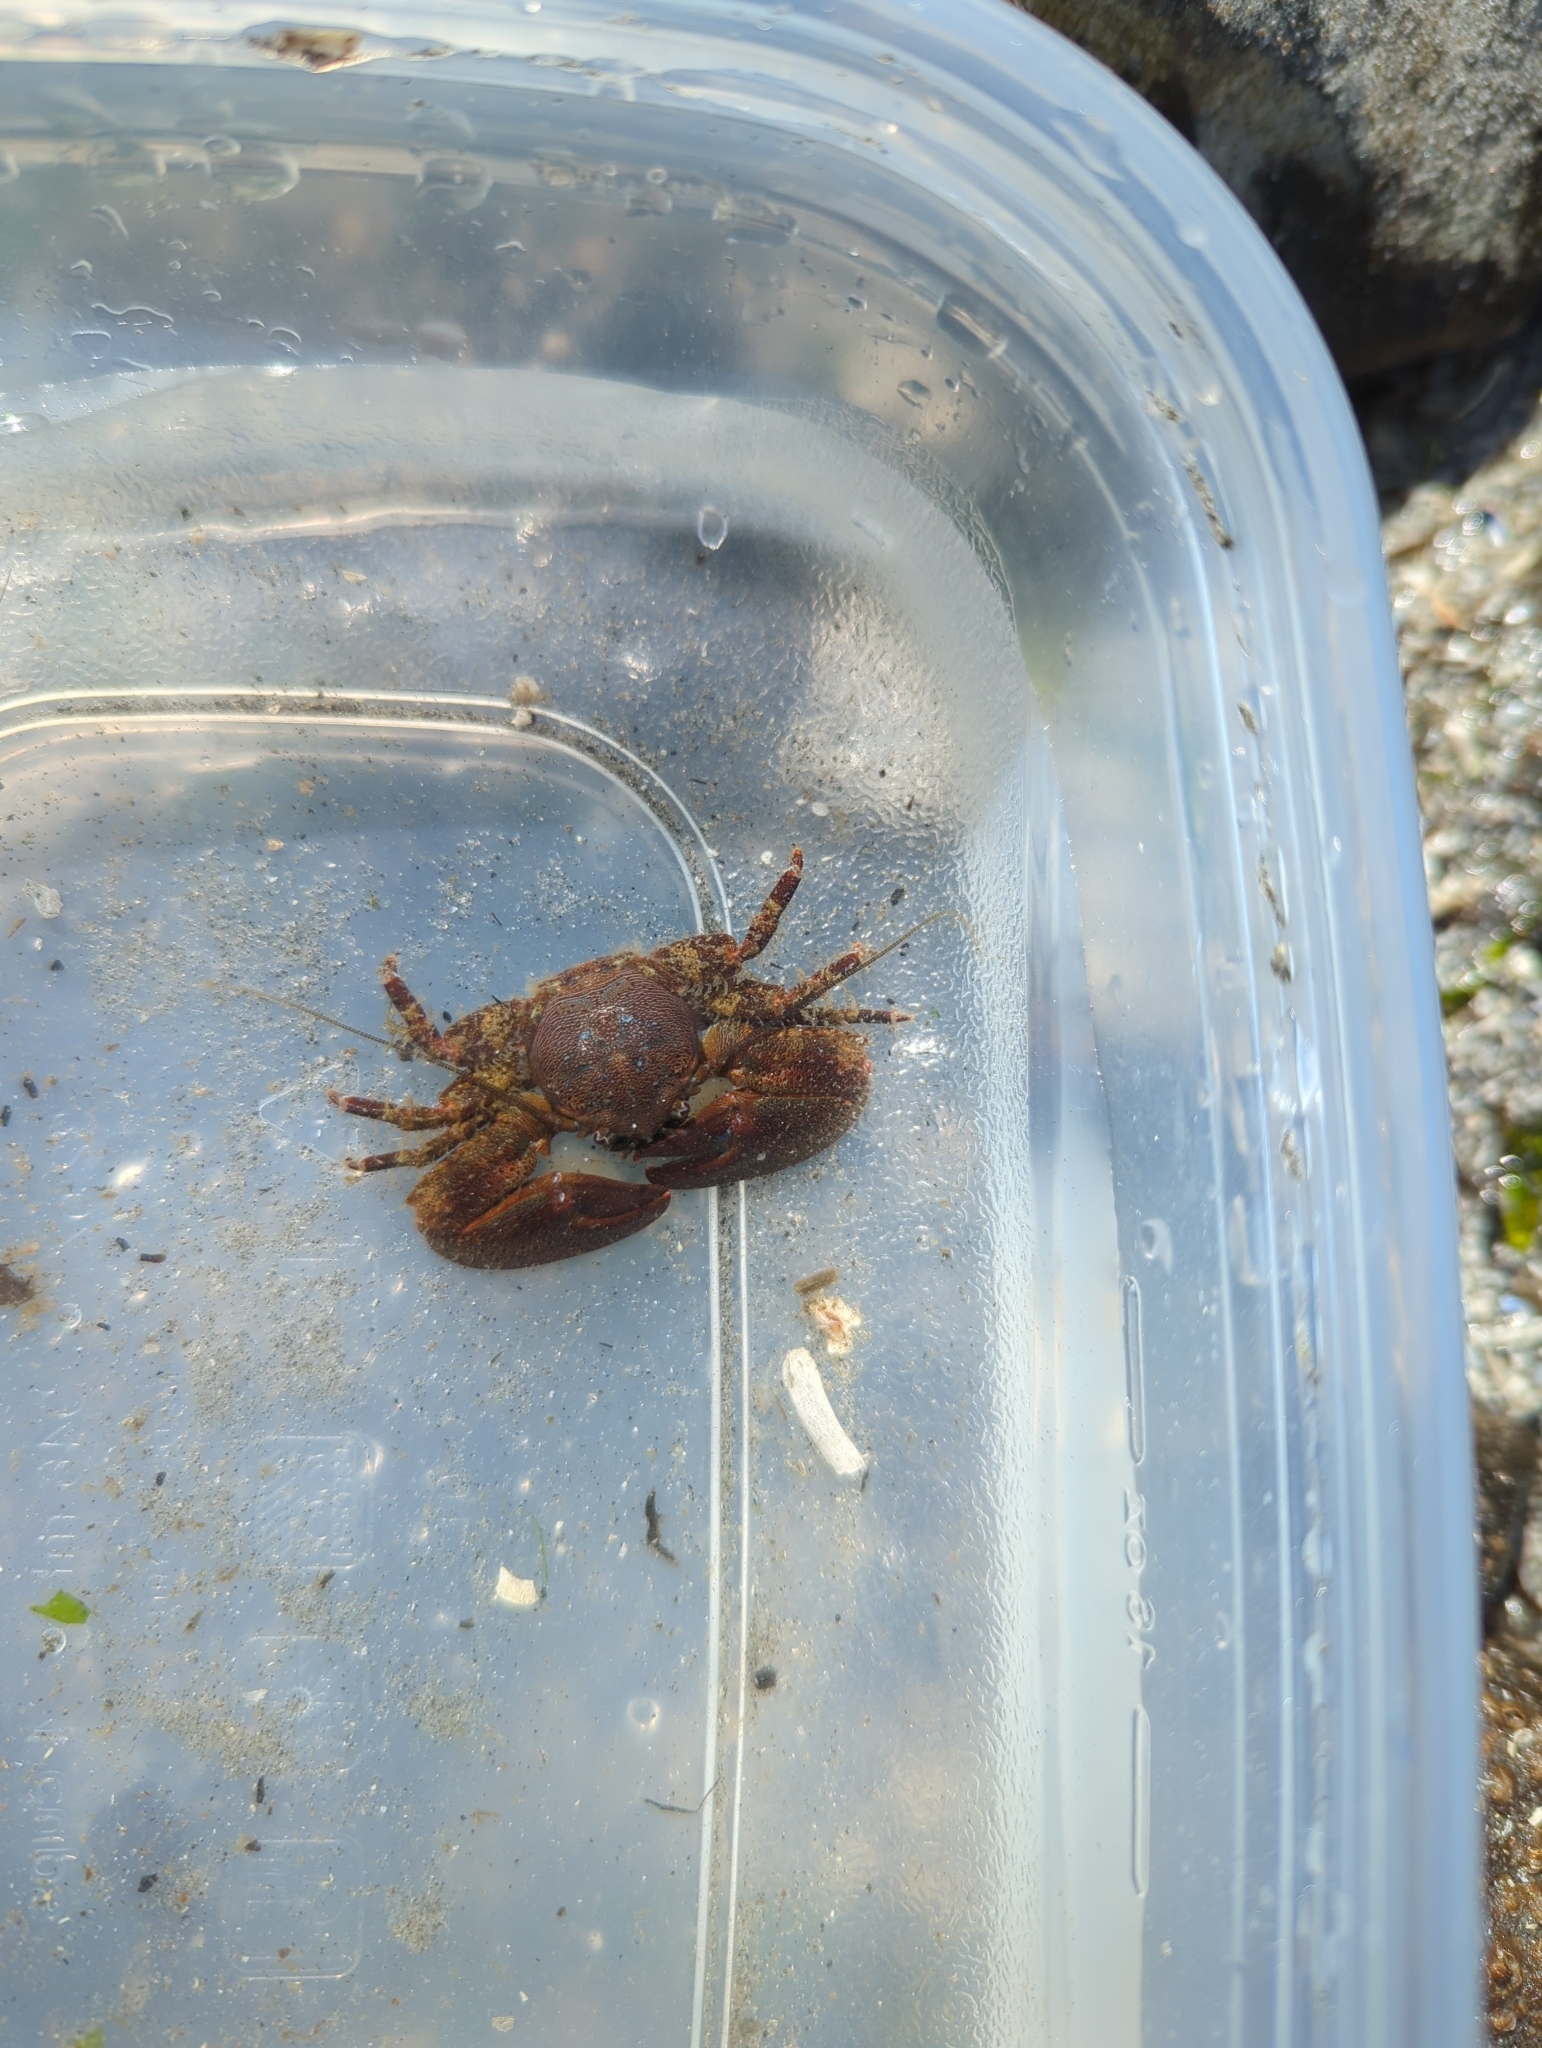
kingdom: Animalia
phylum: Arthropoda
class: Malacostraca
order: Decapoda
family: Porcellanidae
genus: Petrolisthes
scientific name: Petrolisthes eriomerus
